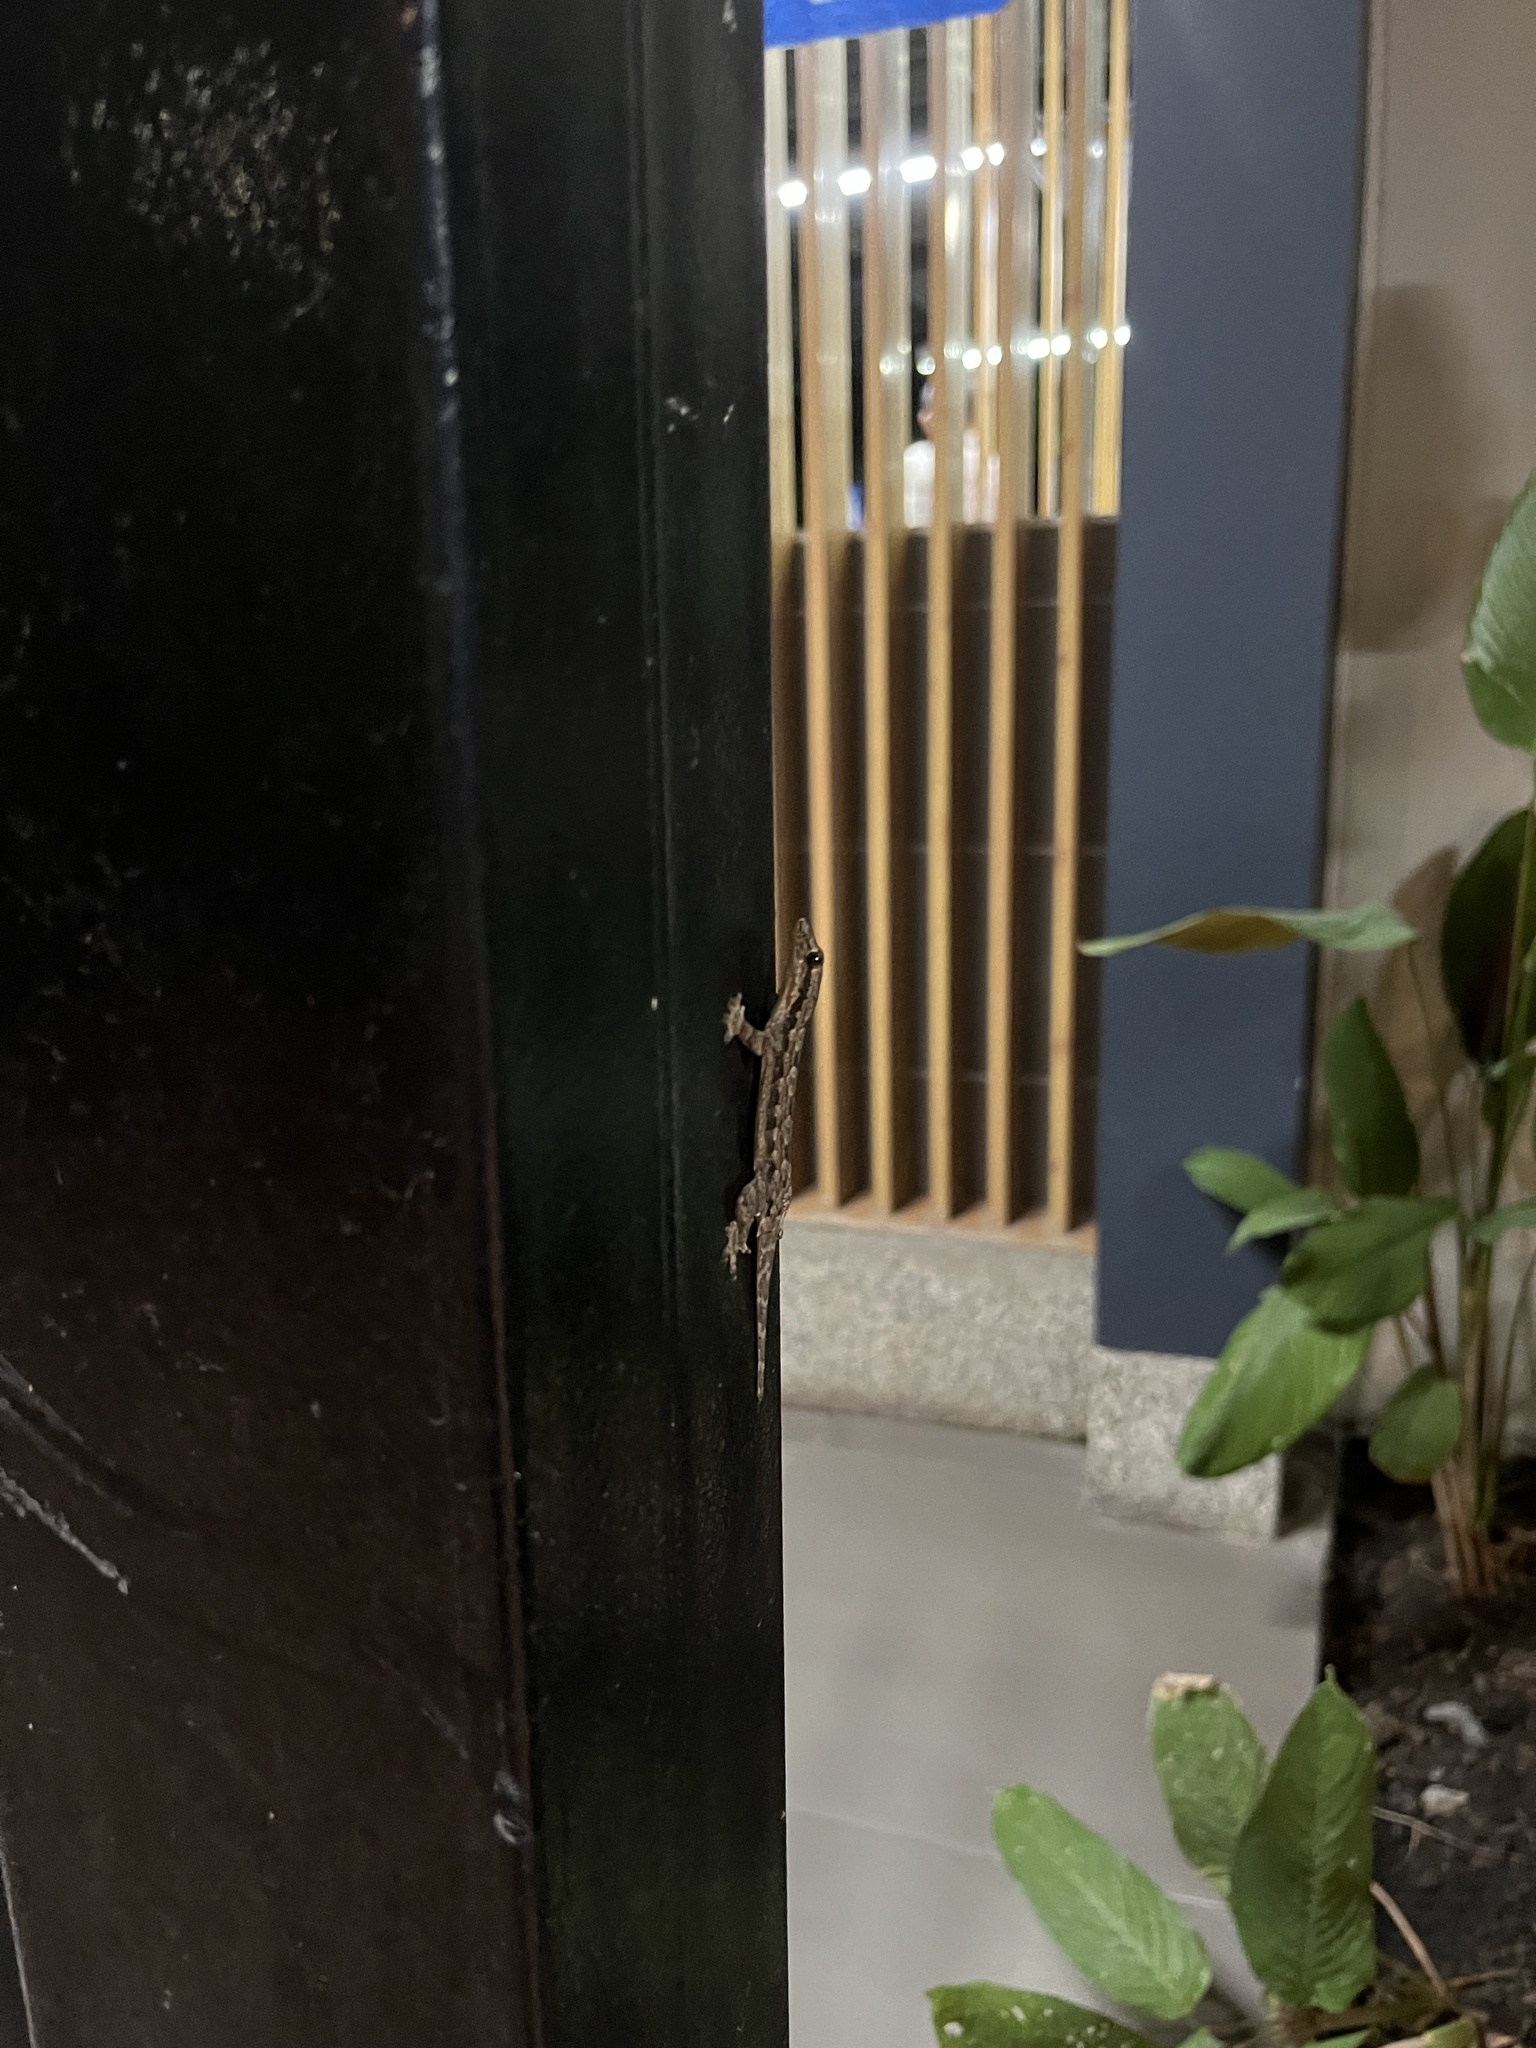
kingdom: Animalia
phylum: Chordata
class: Squamata
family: Gekkonidae
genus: Hemidactylus
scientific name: Hemidactylus platyurus
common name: Flat-tailed house gecko
